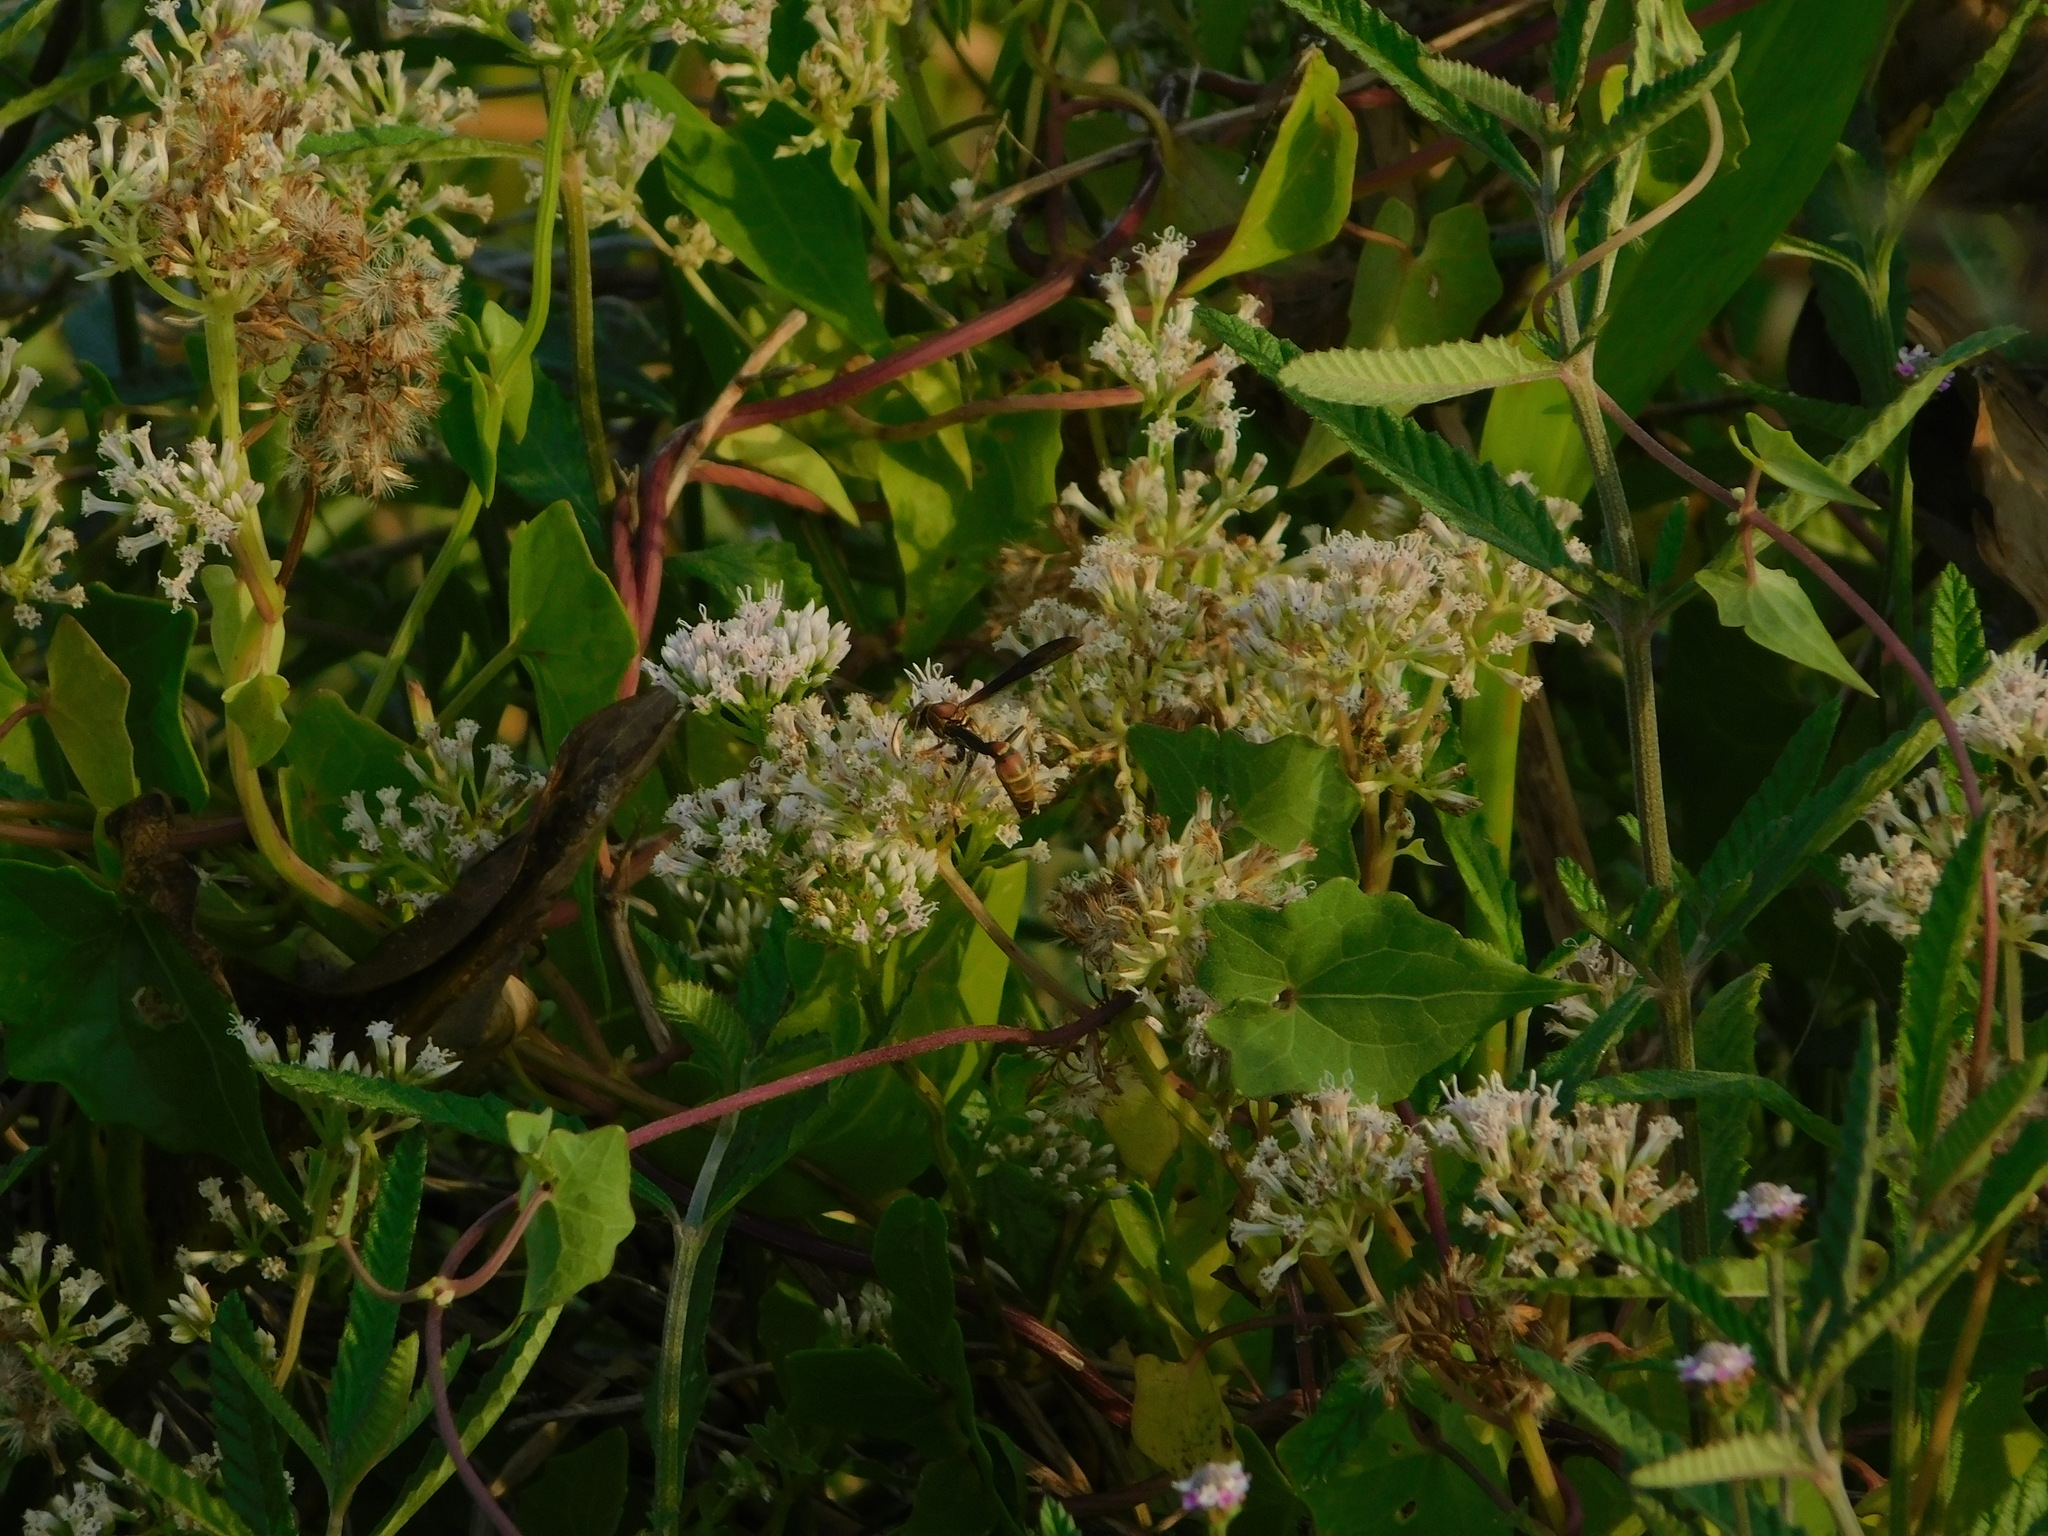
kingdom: Plantae
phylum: Tracheophyta
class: Magnoliopsida
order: Asterales
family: Asteraceae
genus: Mikania
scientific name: Mikania scandens
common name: Climbing hempvine
